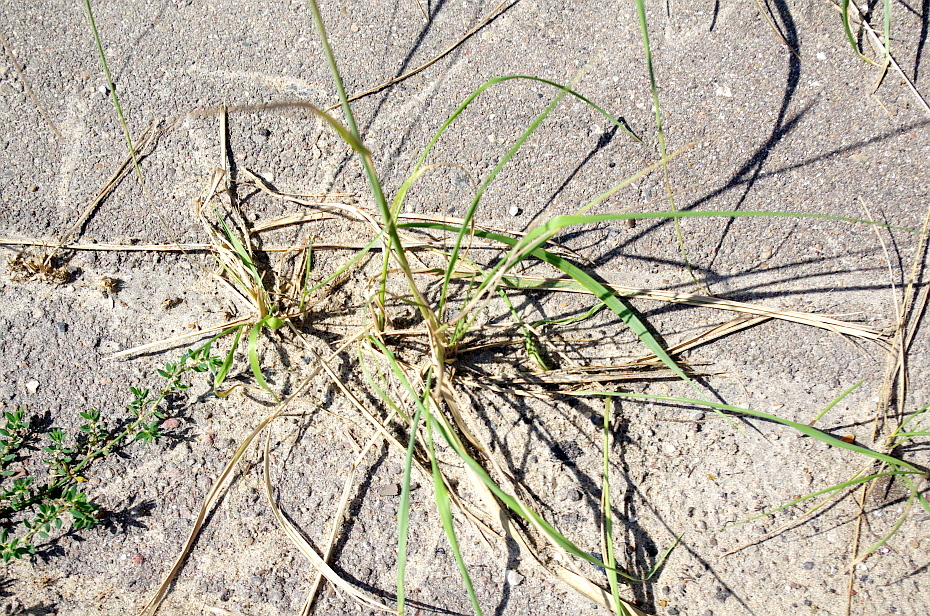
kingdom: Plantae
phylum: Tracheophyta
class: Liliopsida
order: Poales
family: Poaceae
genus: Calamagrostis
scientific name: Calamagrostis epigejos
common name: Wood small-reed
